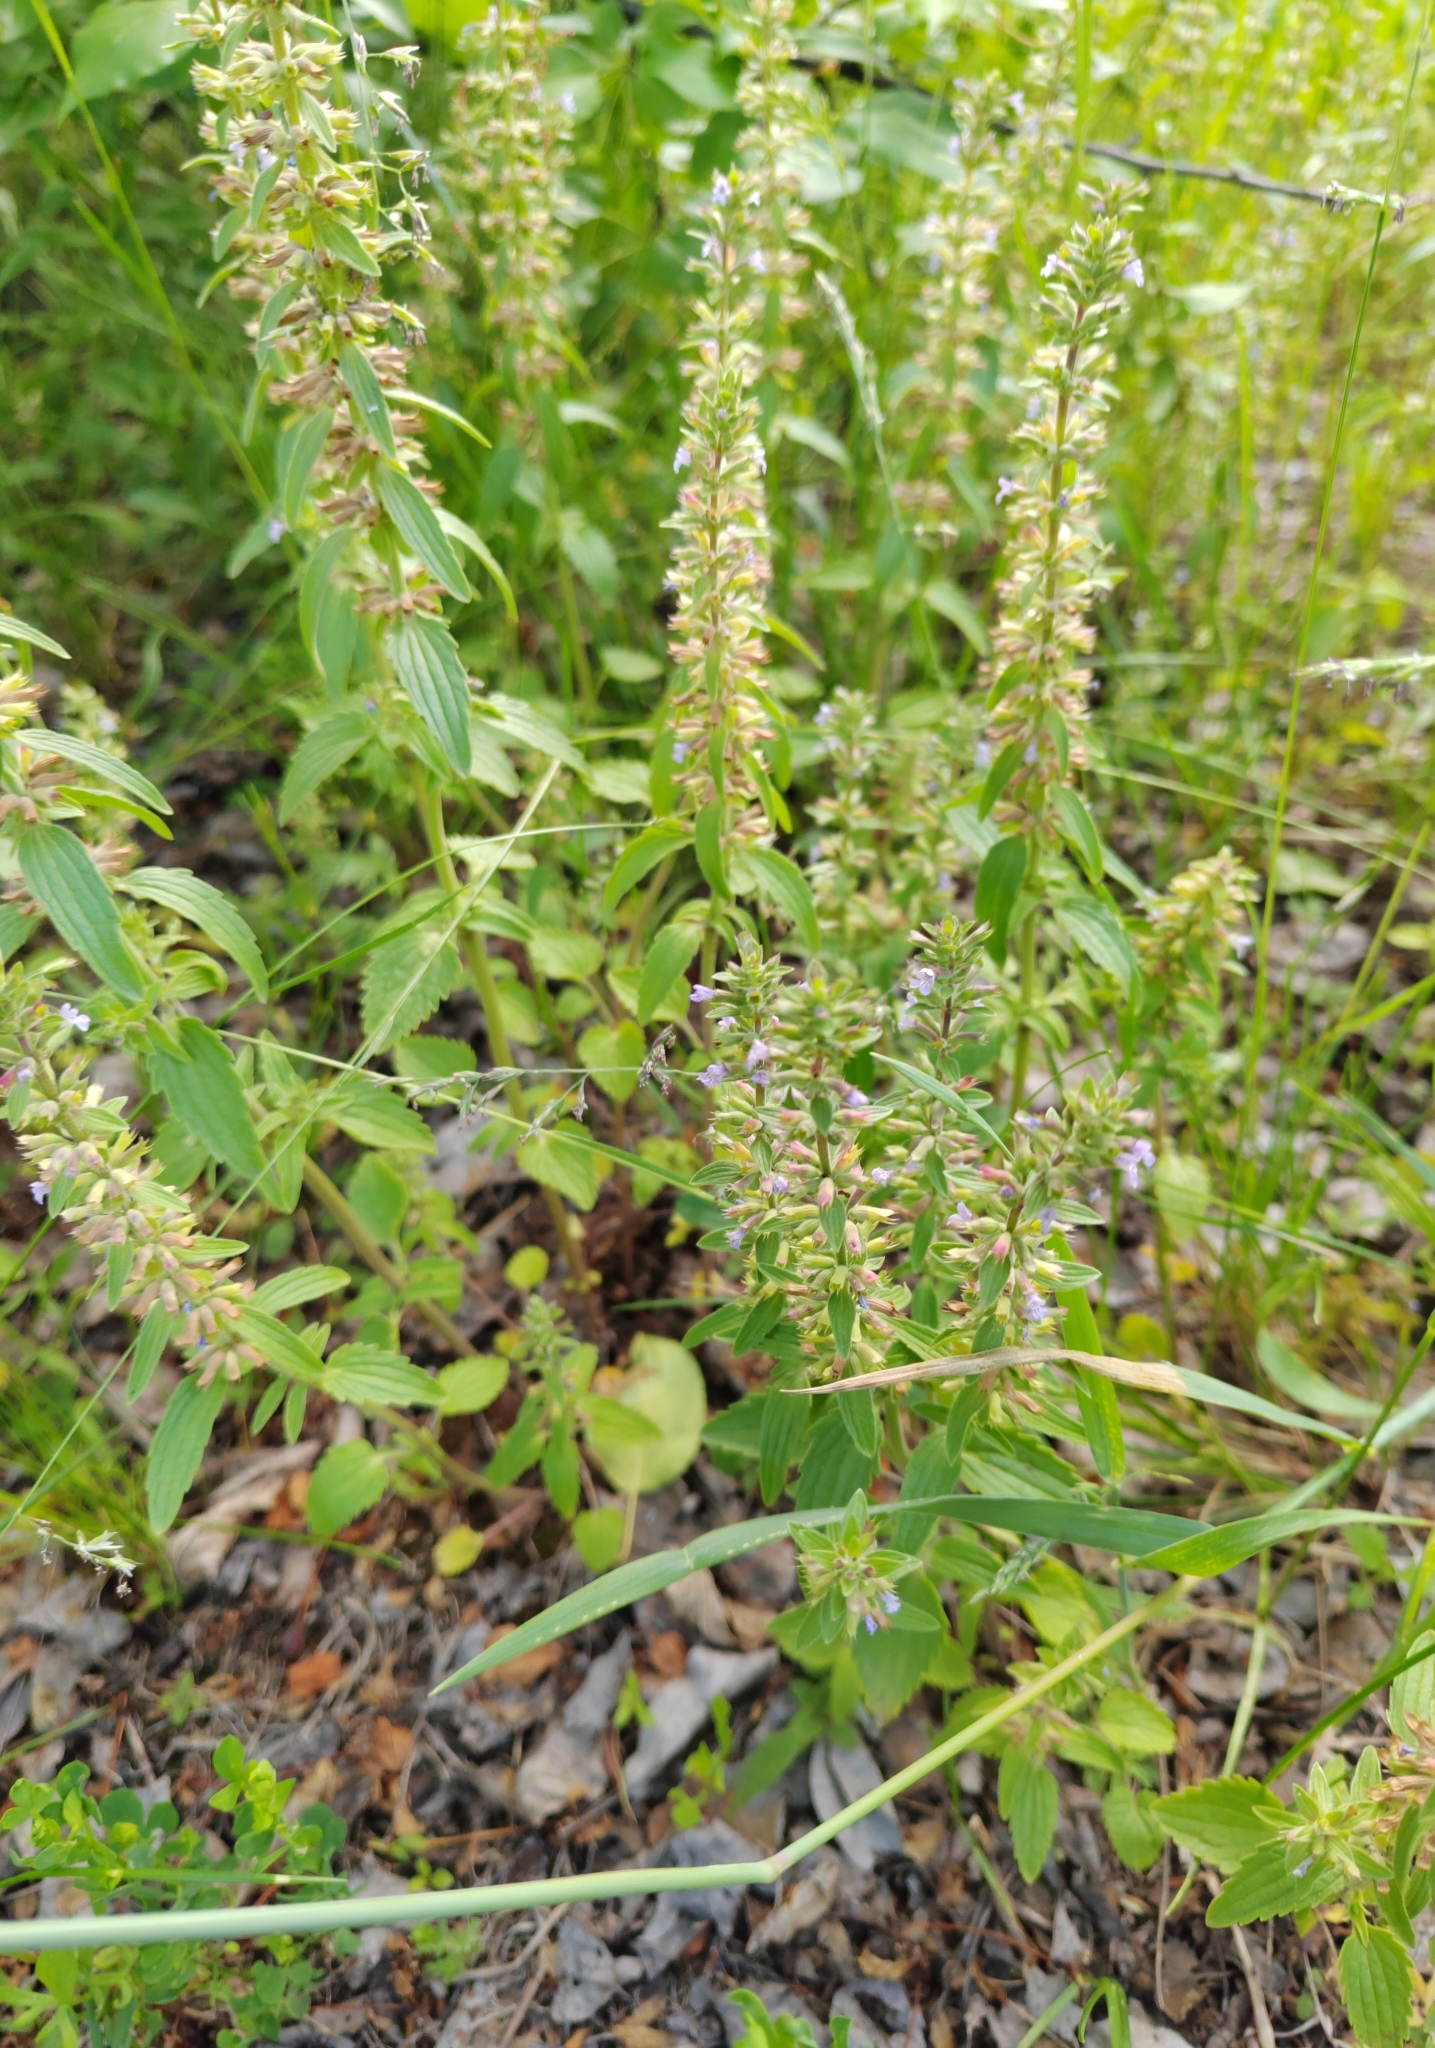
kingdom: Plantae
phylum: Tracheophyta
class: Magnoliopsida
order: Lamiales
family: Lamiaceae
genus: Dracocephalum
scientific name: Dracocephalum thymiflorum
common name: Thymeleaf dragonhead
